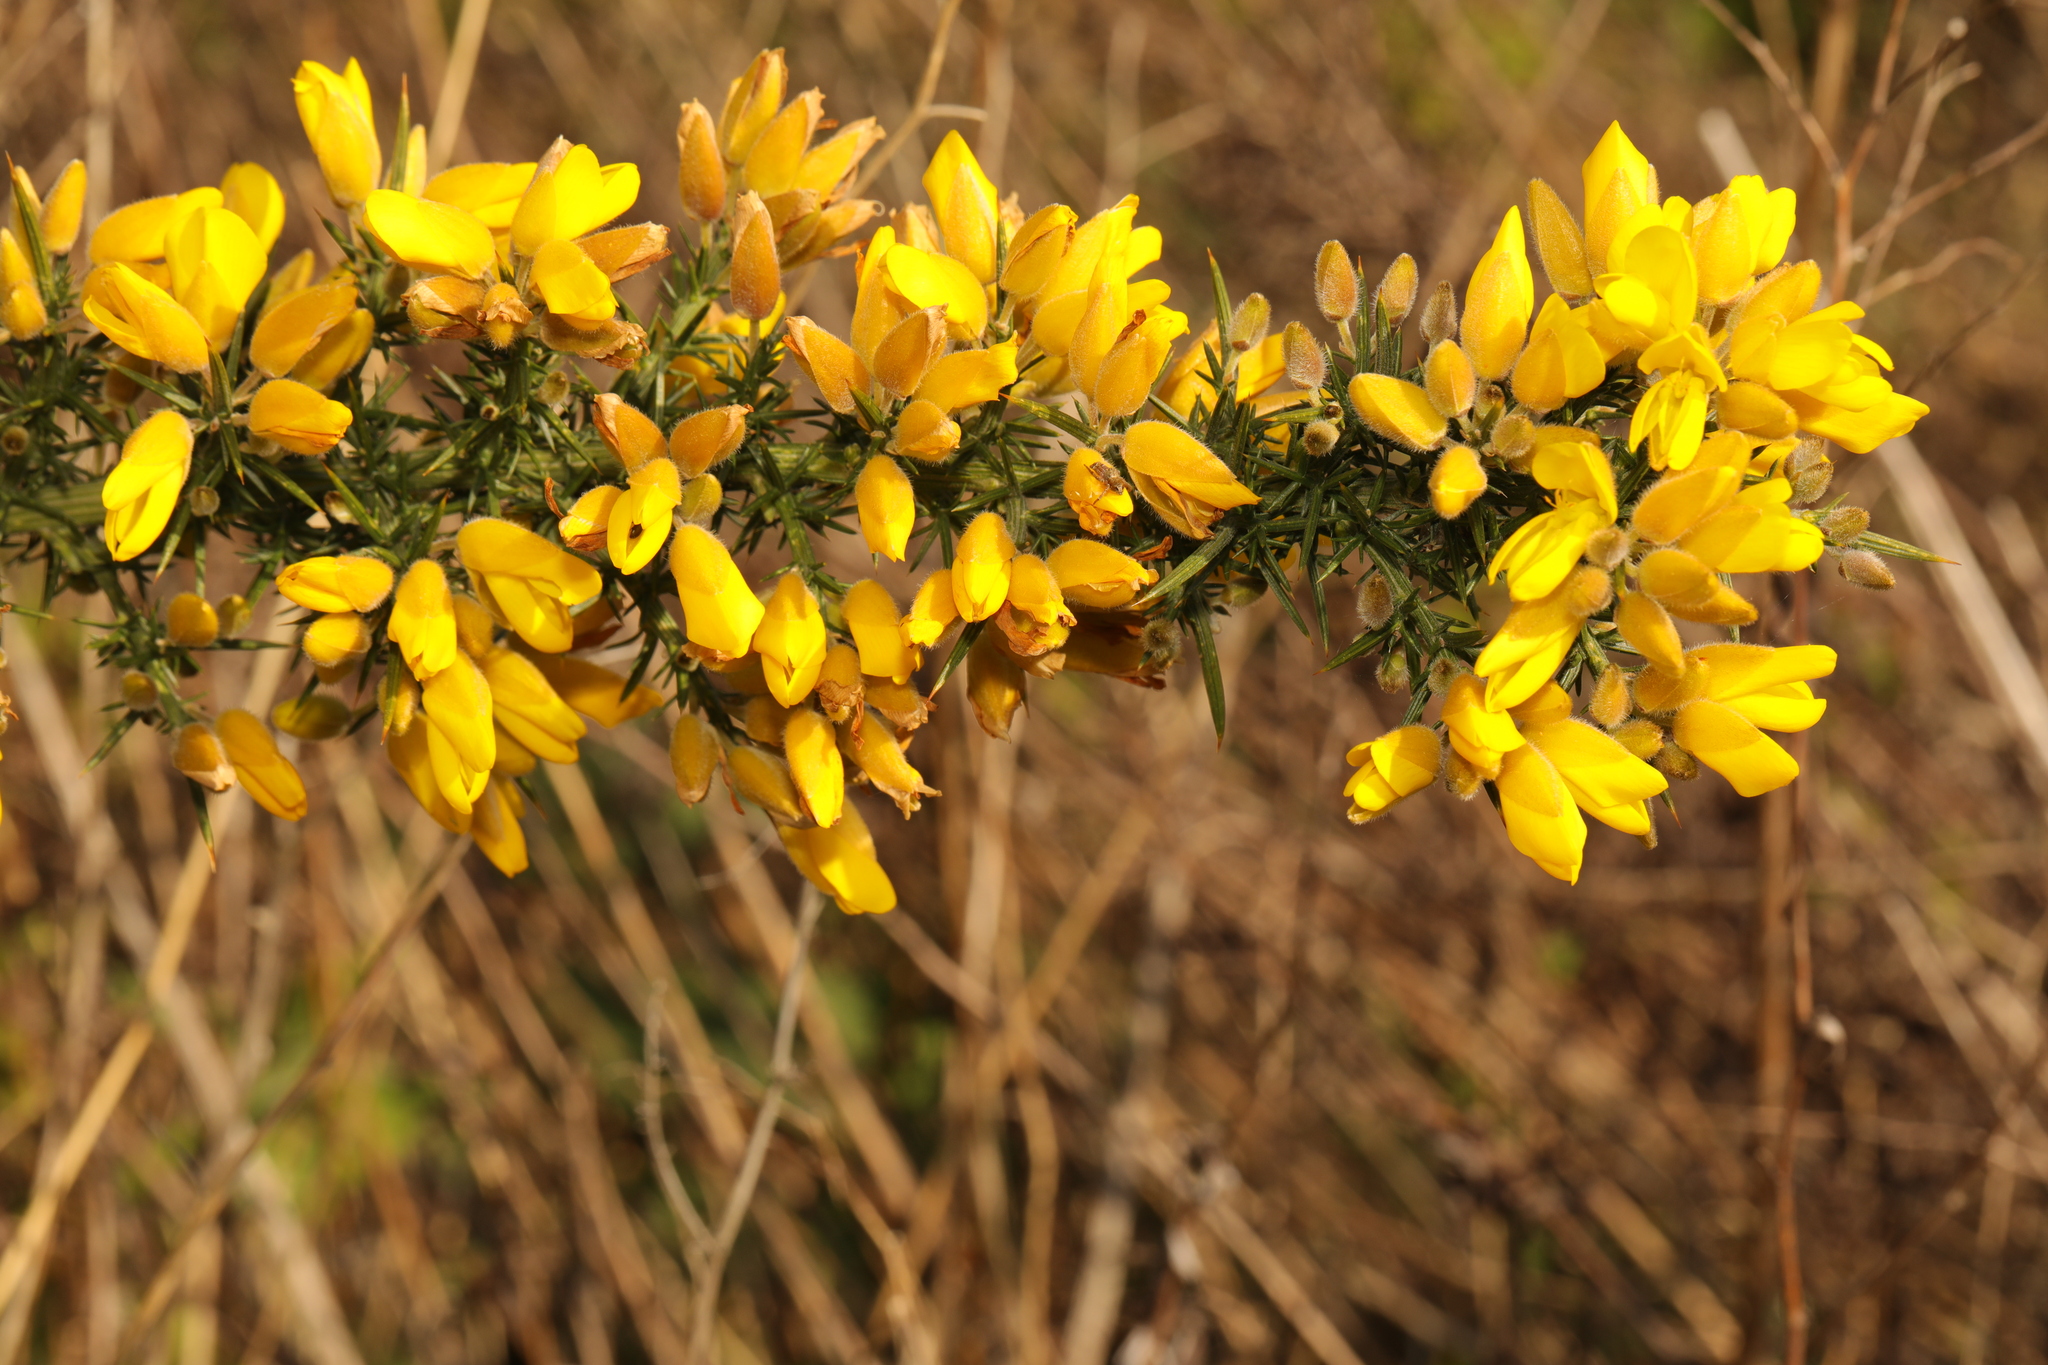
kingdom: Plantae
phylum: Tracheophyta
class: Magnoliopsida
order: Fabales
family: Fabaceae
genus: Ulex
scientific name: Ulex europaeus
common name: Common gorse
